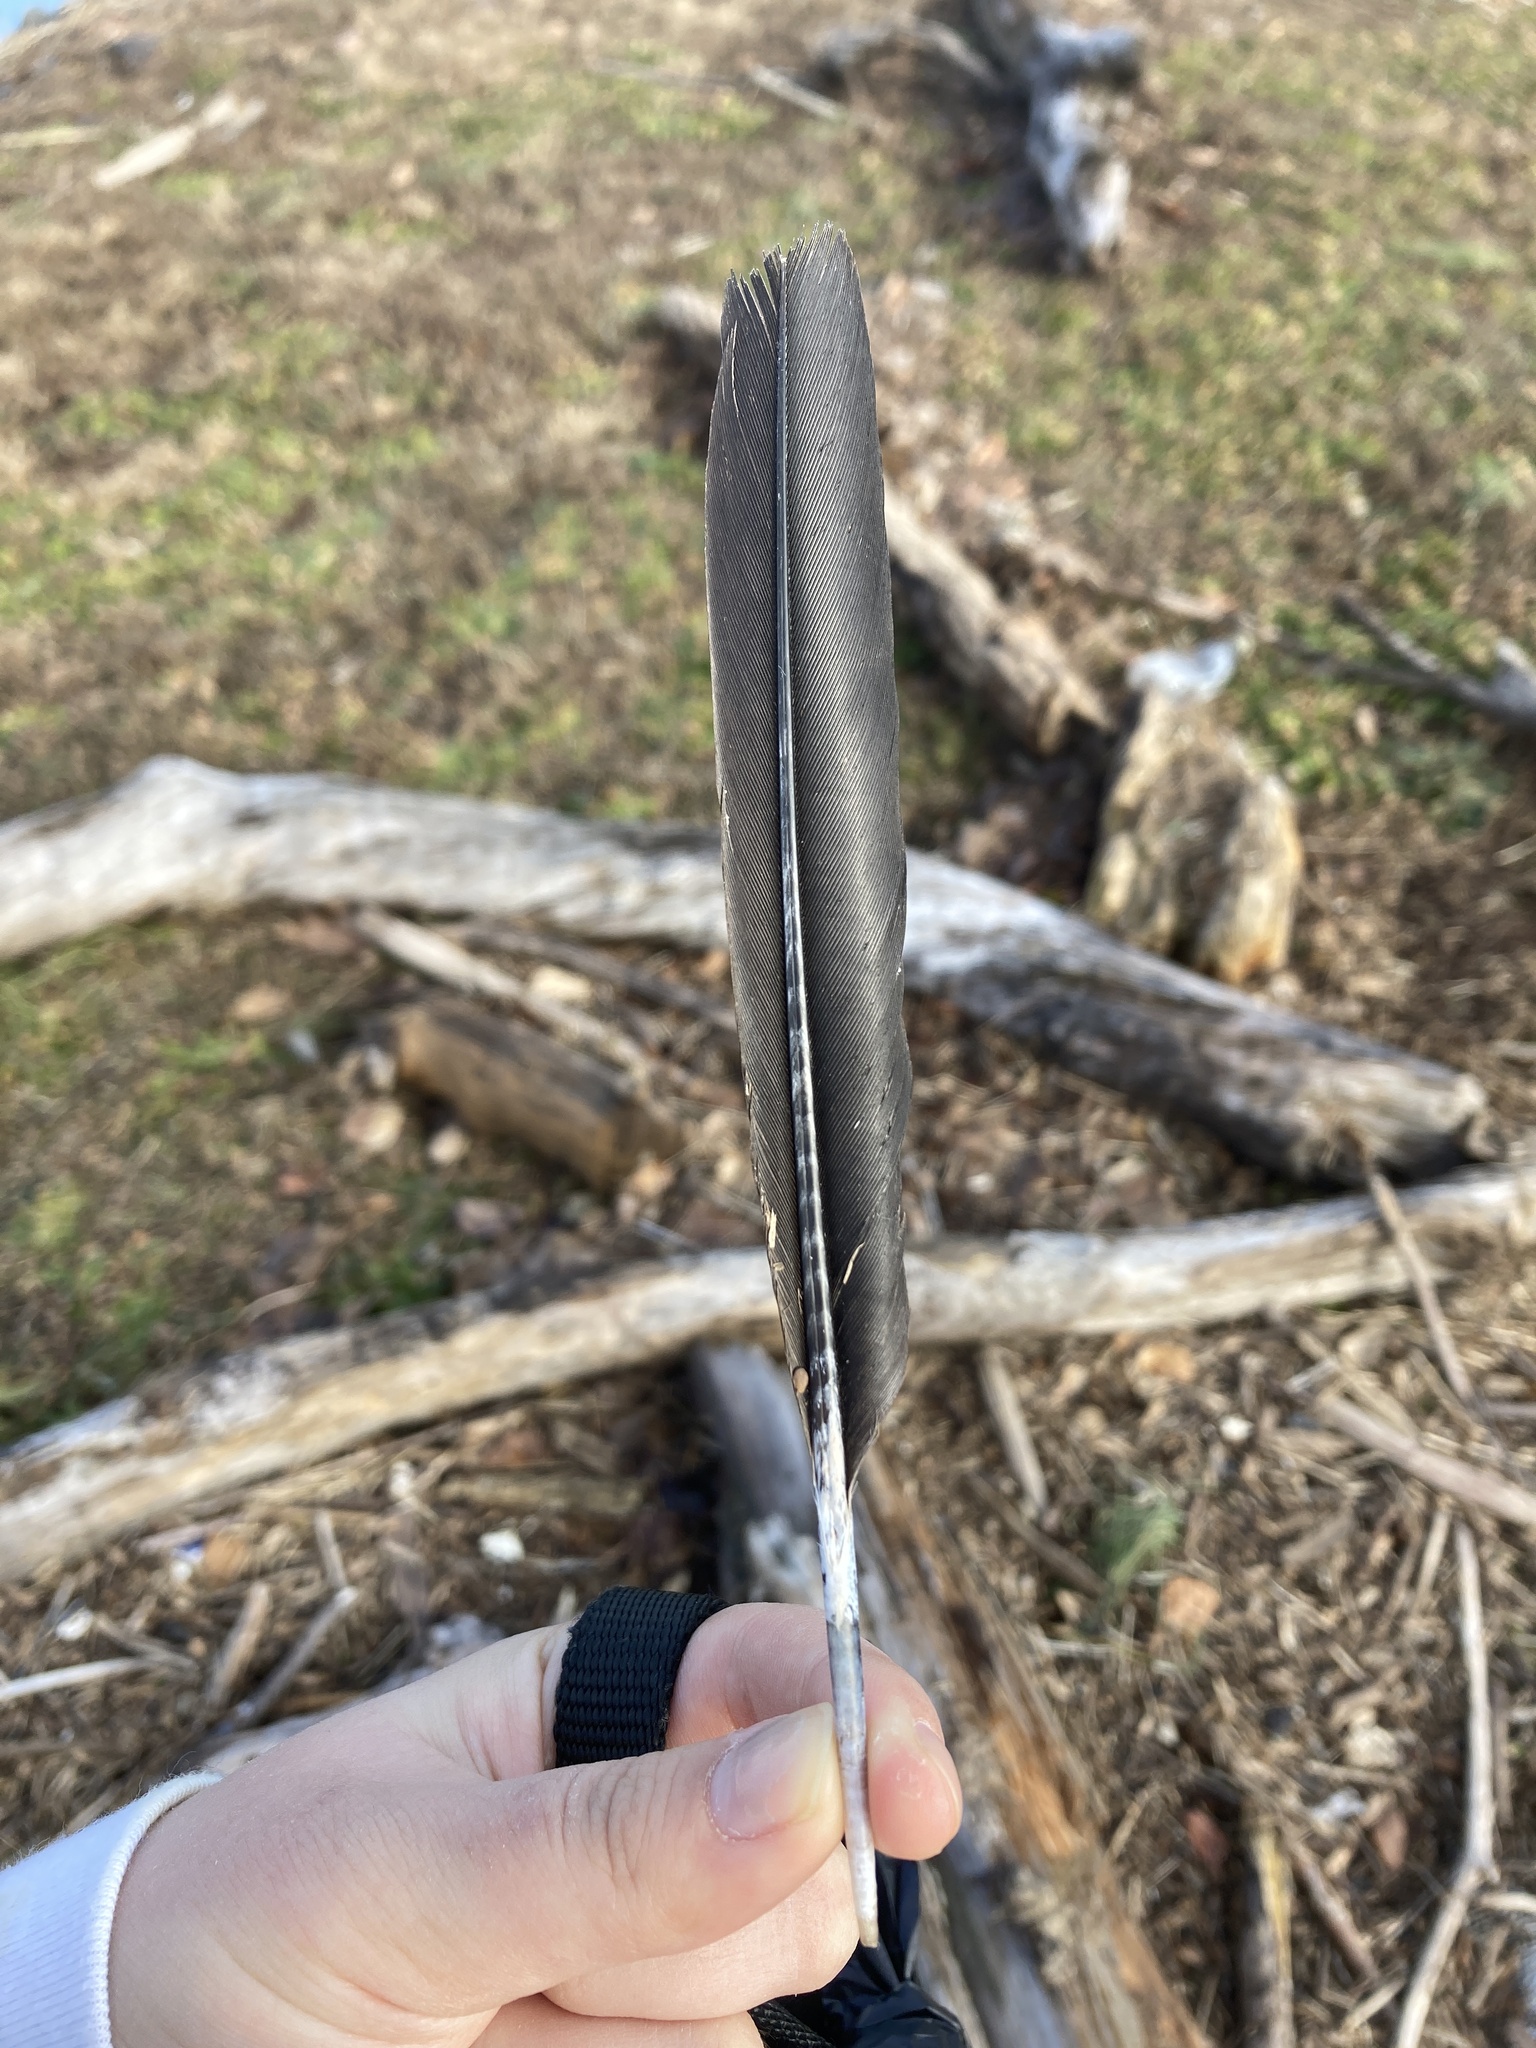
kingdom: Animalia
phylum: Chordata
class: Aves
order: Suliformes
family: Phalacrocoracidae
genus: Phalacrocorax
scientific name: Phalacrocorax auritus
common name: Double-crested cormorant
